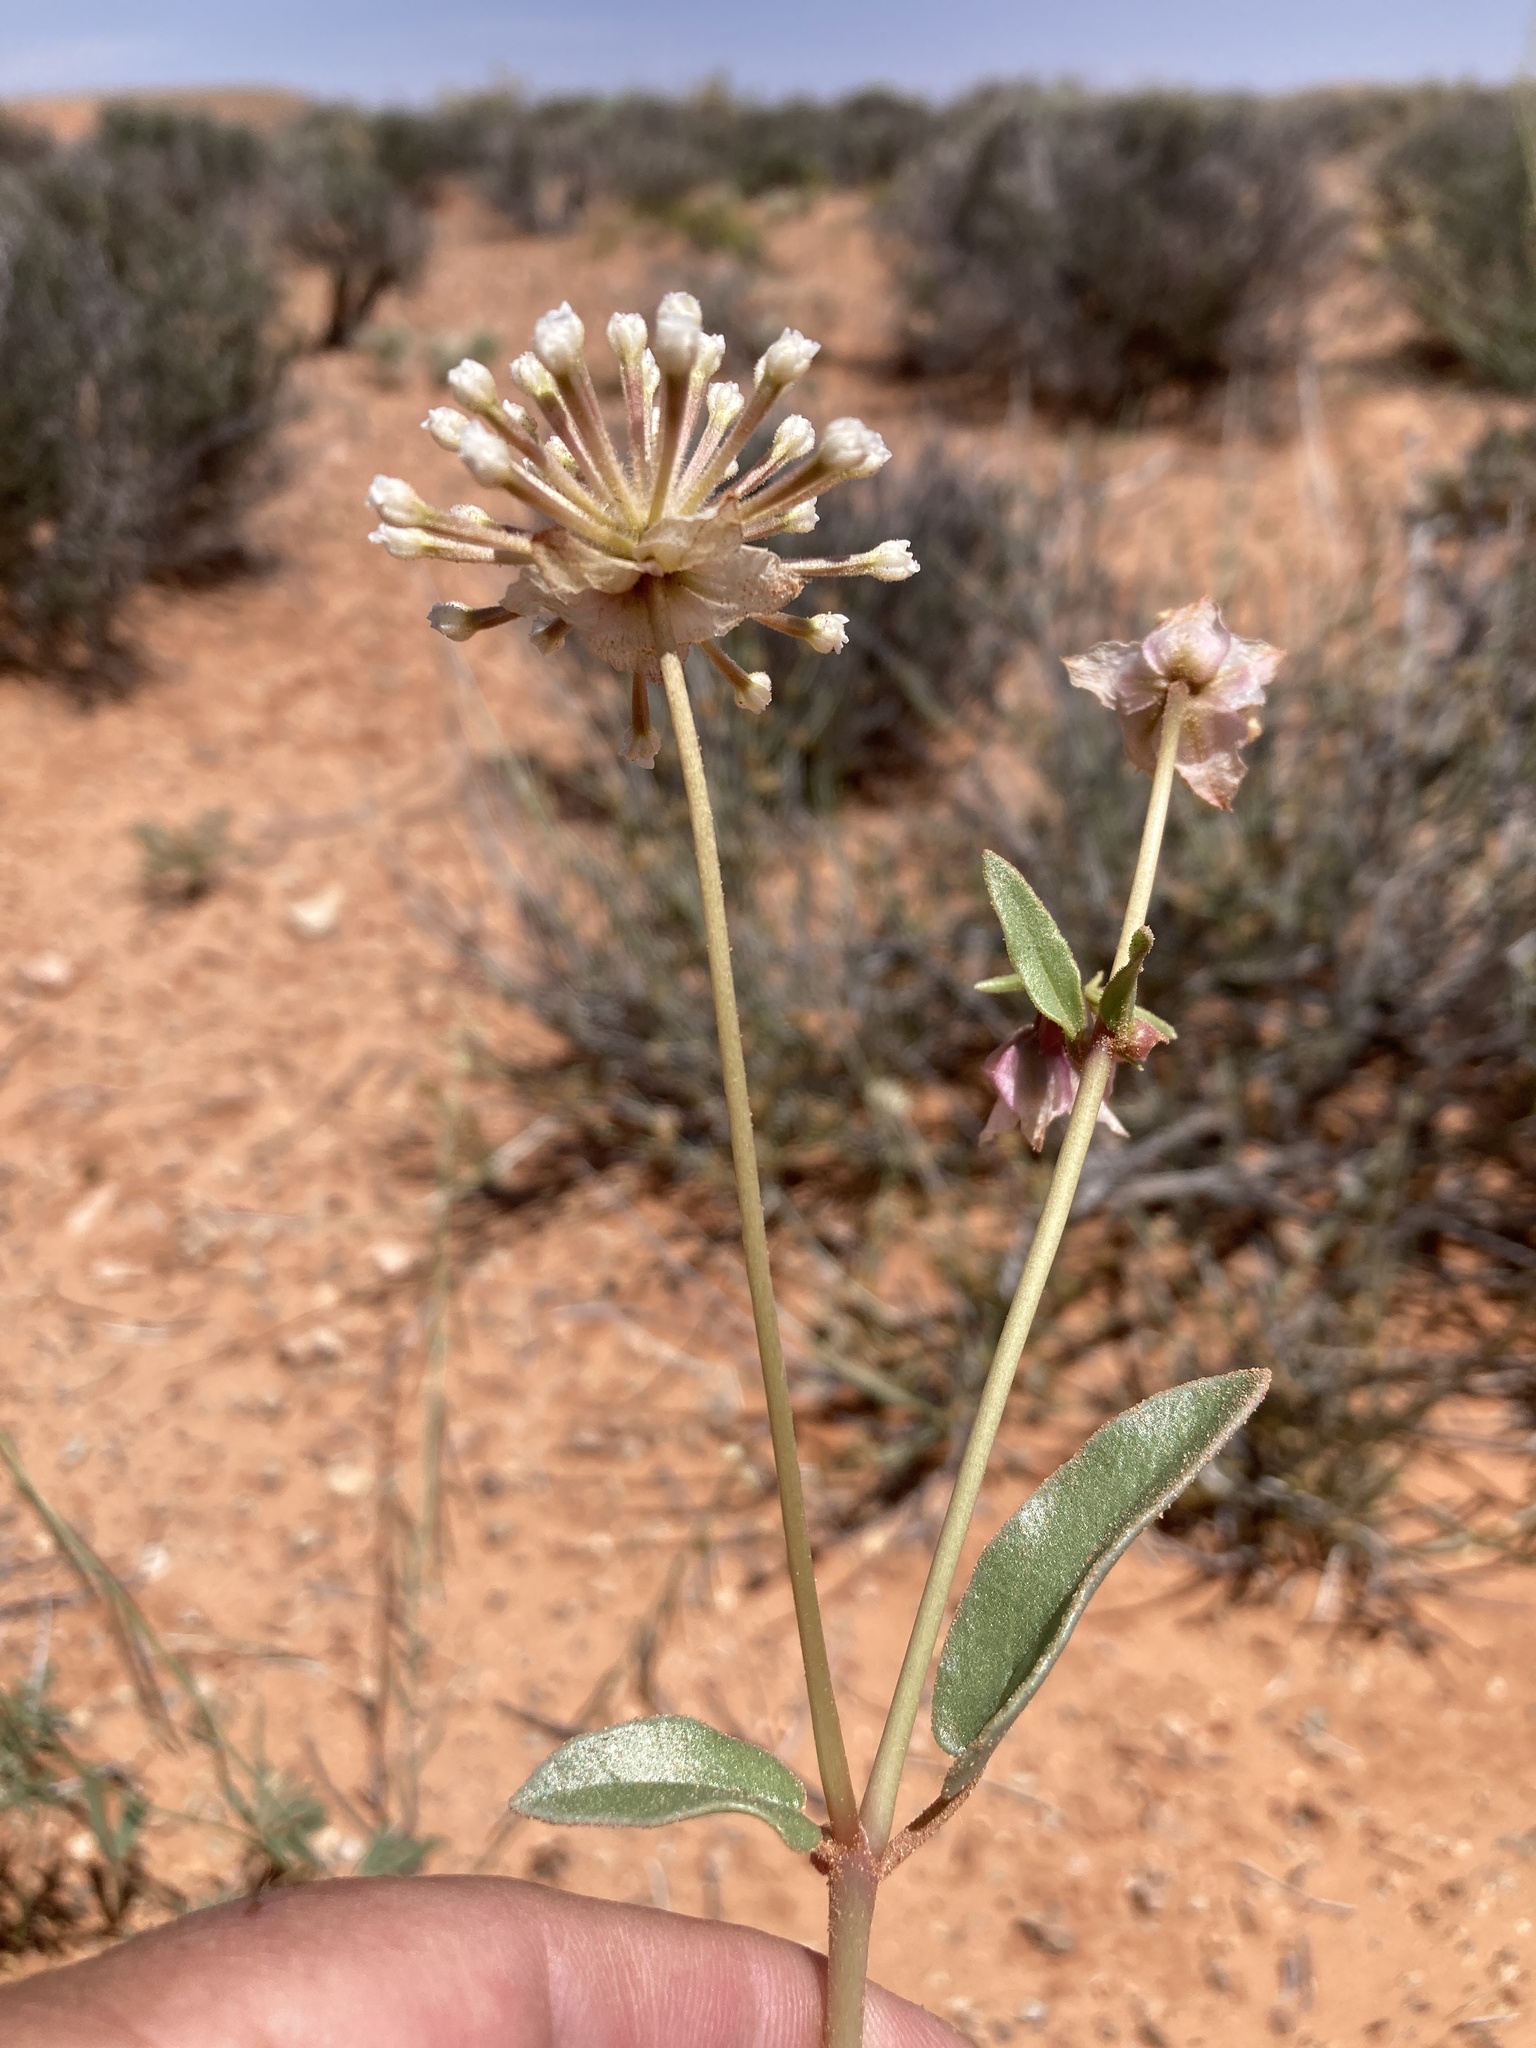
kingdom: Plantae
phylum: Tracheophyta
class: Magnoliopsida
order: Caryophyllales
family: Nyctaginaceae
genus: Abronia
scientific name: Abronia elliptica
